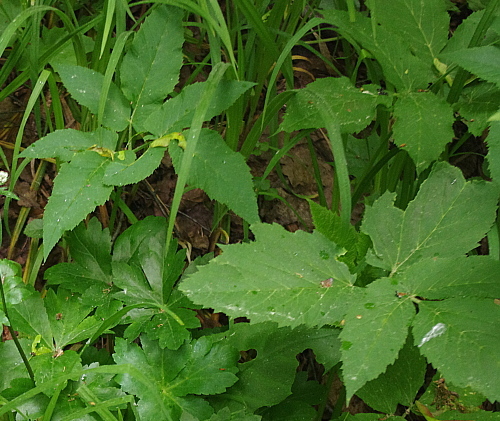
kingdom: Plantae
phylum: Tracheophyta
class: Magnoliopsida
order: Apiales
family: Apiaceae
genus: Aegopodium
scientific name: Aegopodium podagraria
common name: Ground-elder
